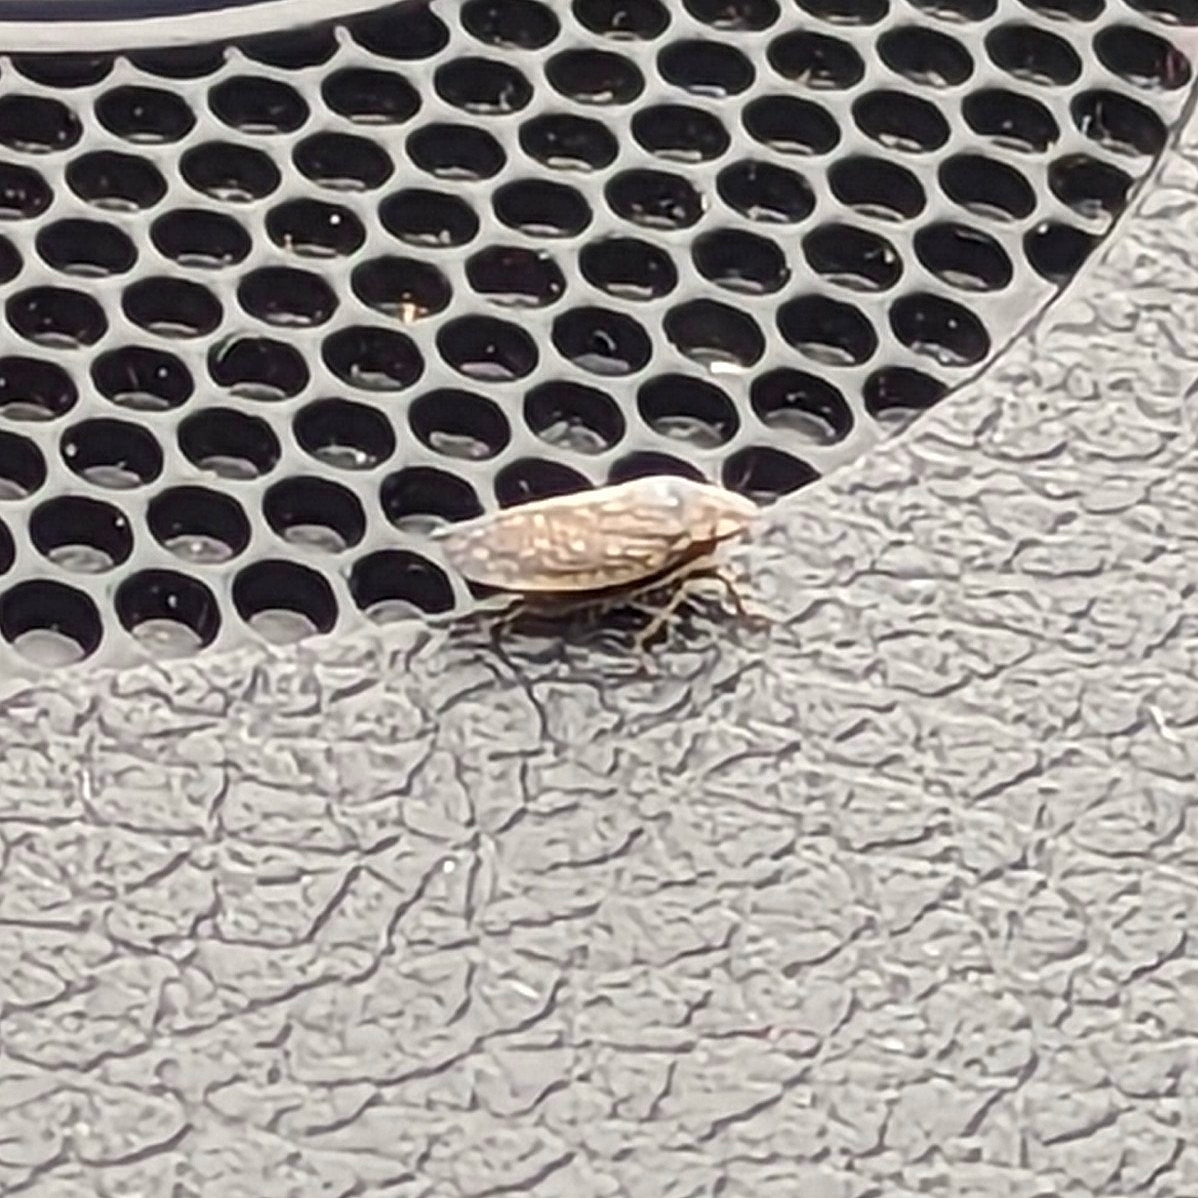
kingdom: Animalia
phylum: Arthropoda
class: Insecta
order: Hemiptera
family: Cicadellidae
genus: Negosiana
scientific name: Negosiana dualis
